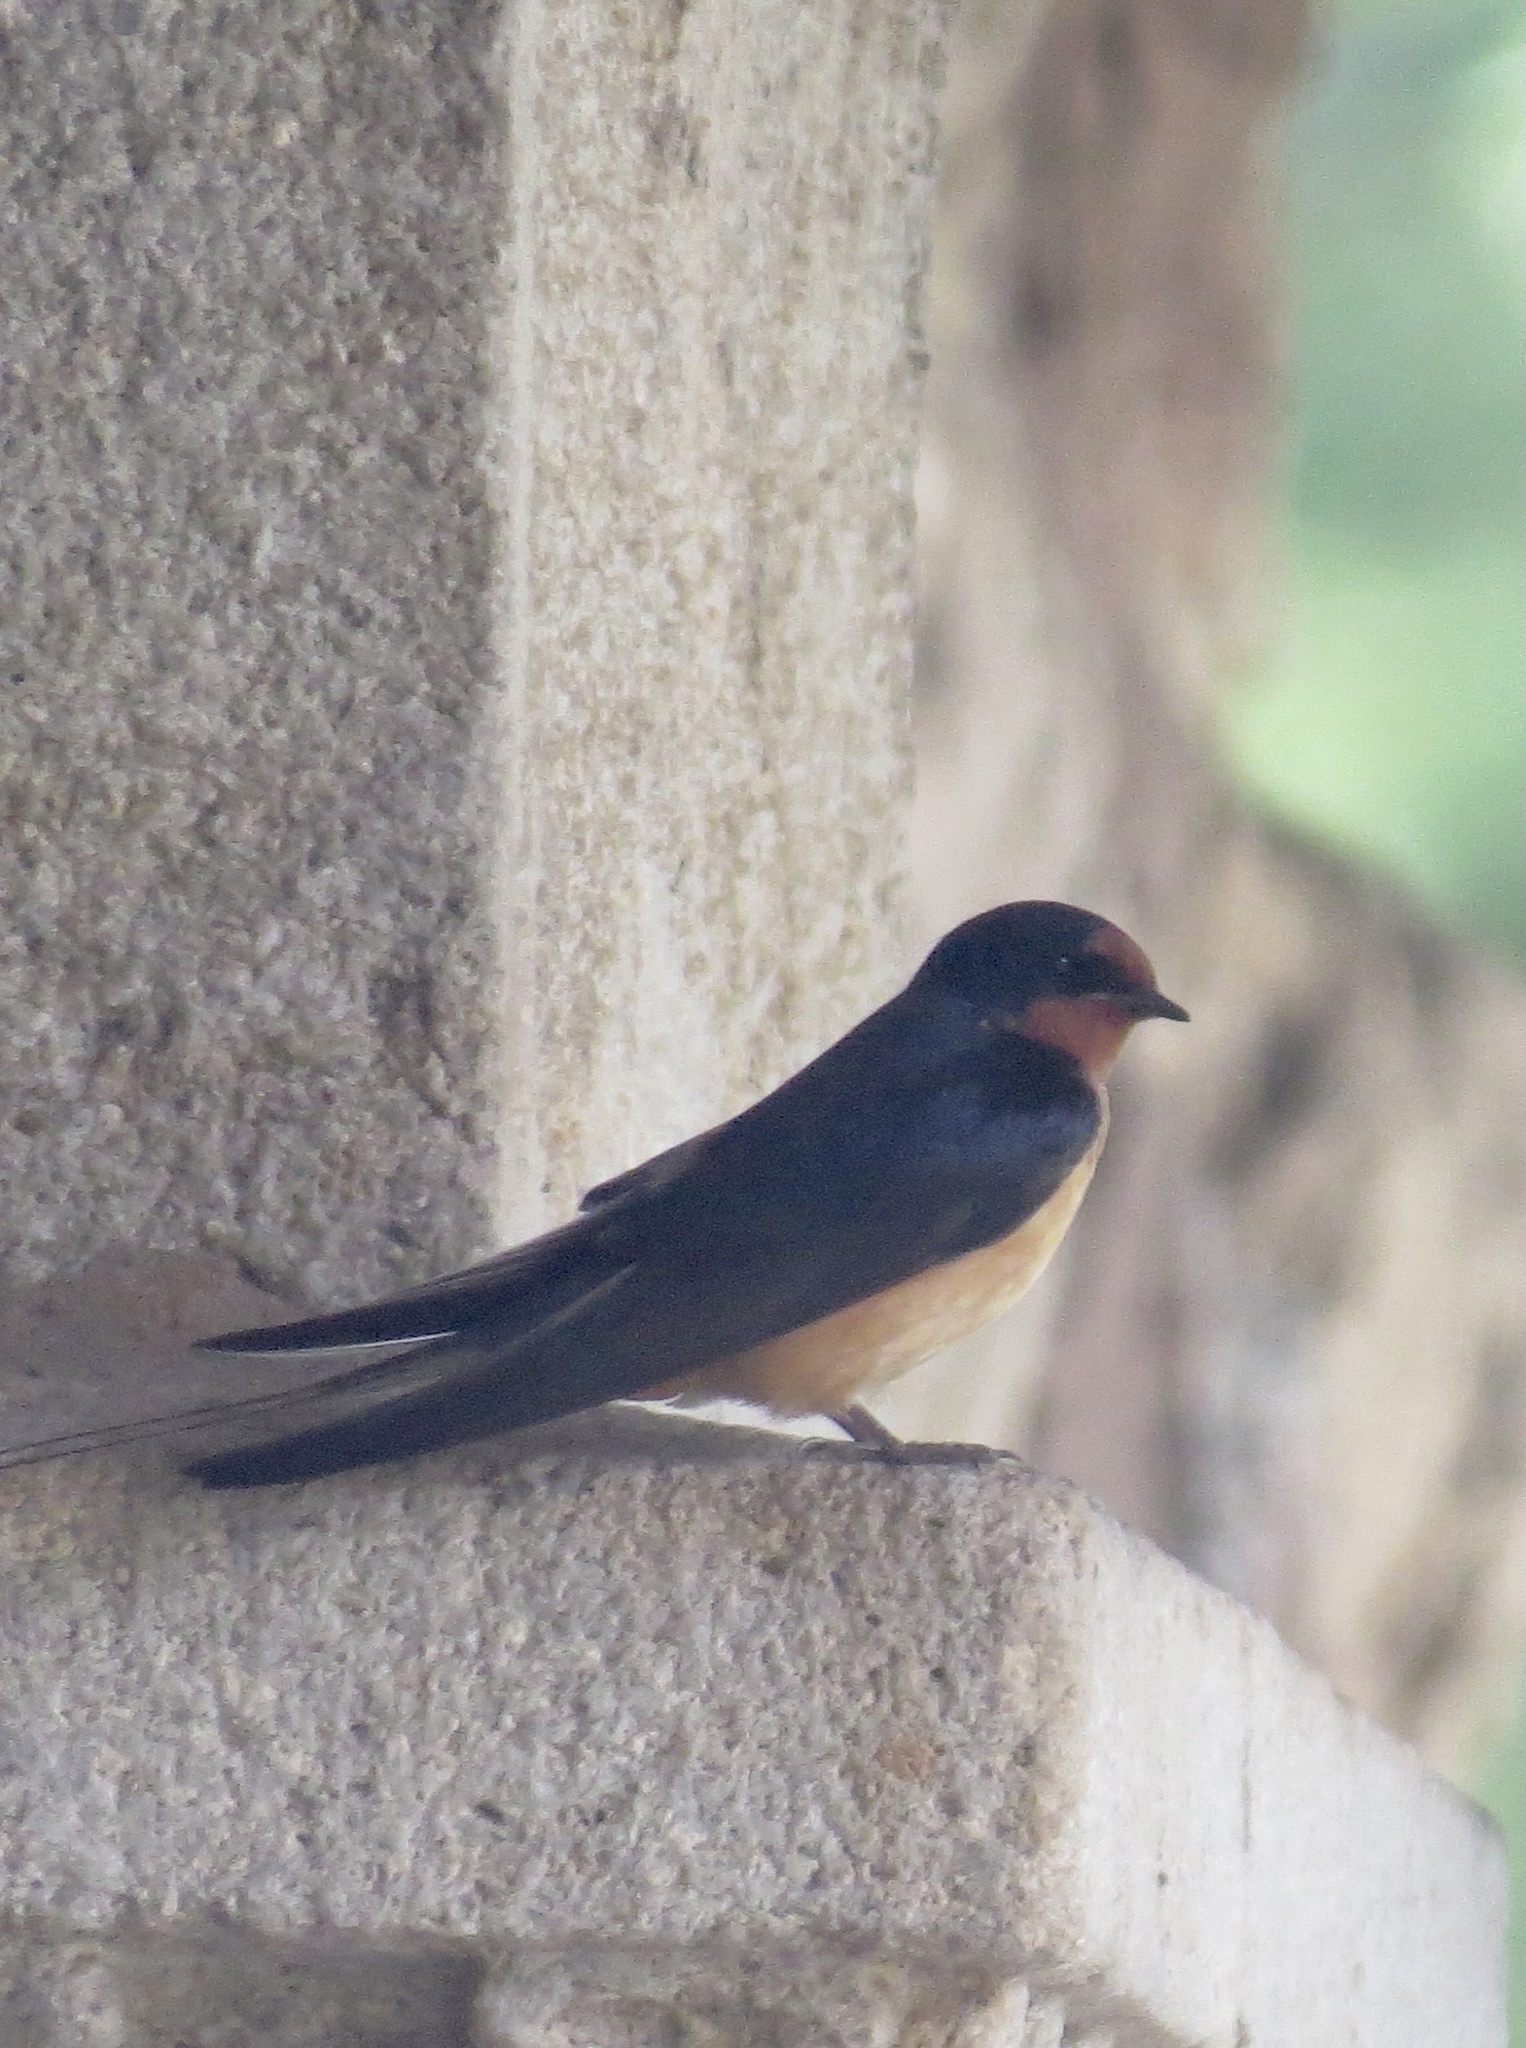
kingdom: Animalia
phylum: Chordata
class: Aves
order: Passeriformes
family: Hirundinidae
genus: Hirundo
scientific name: Hirundo rustica
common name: Barn swallow
